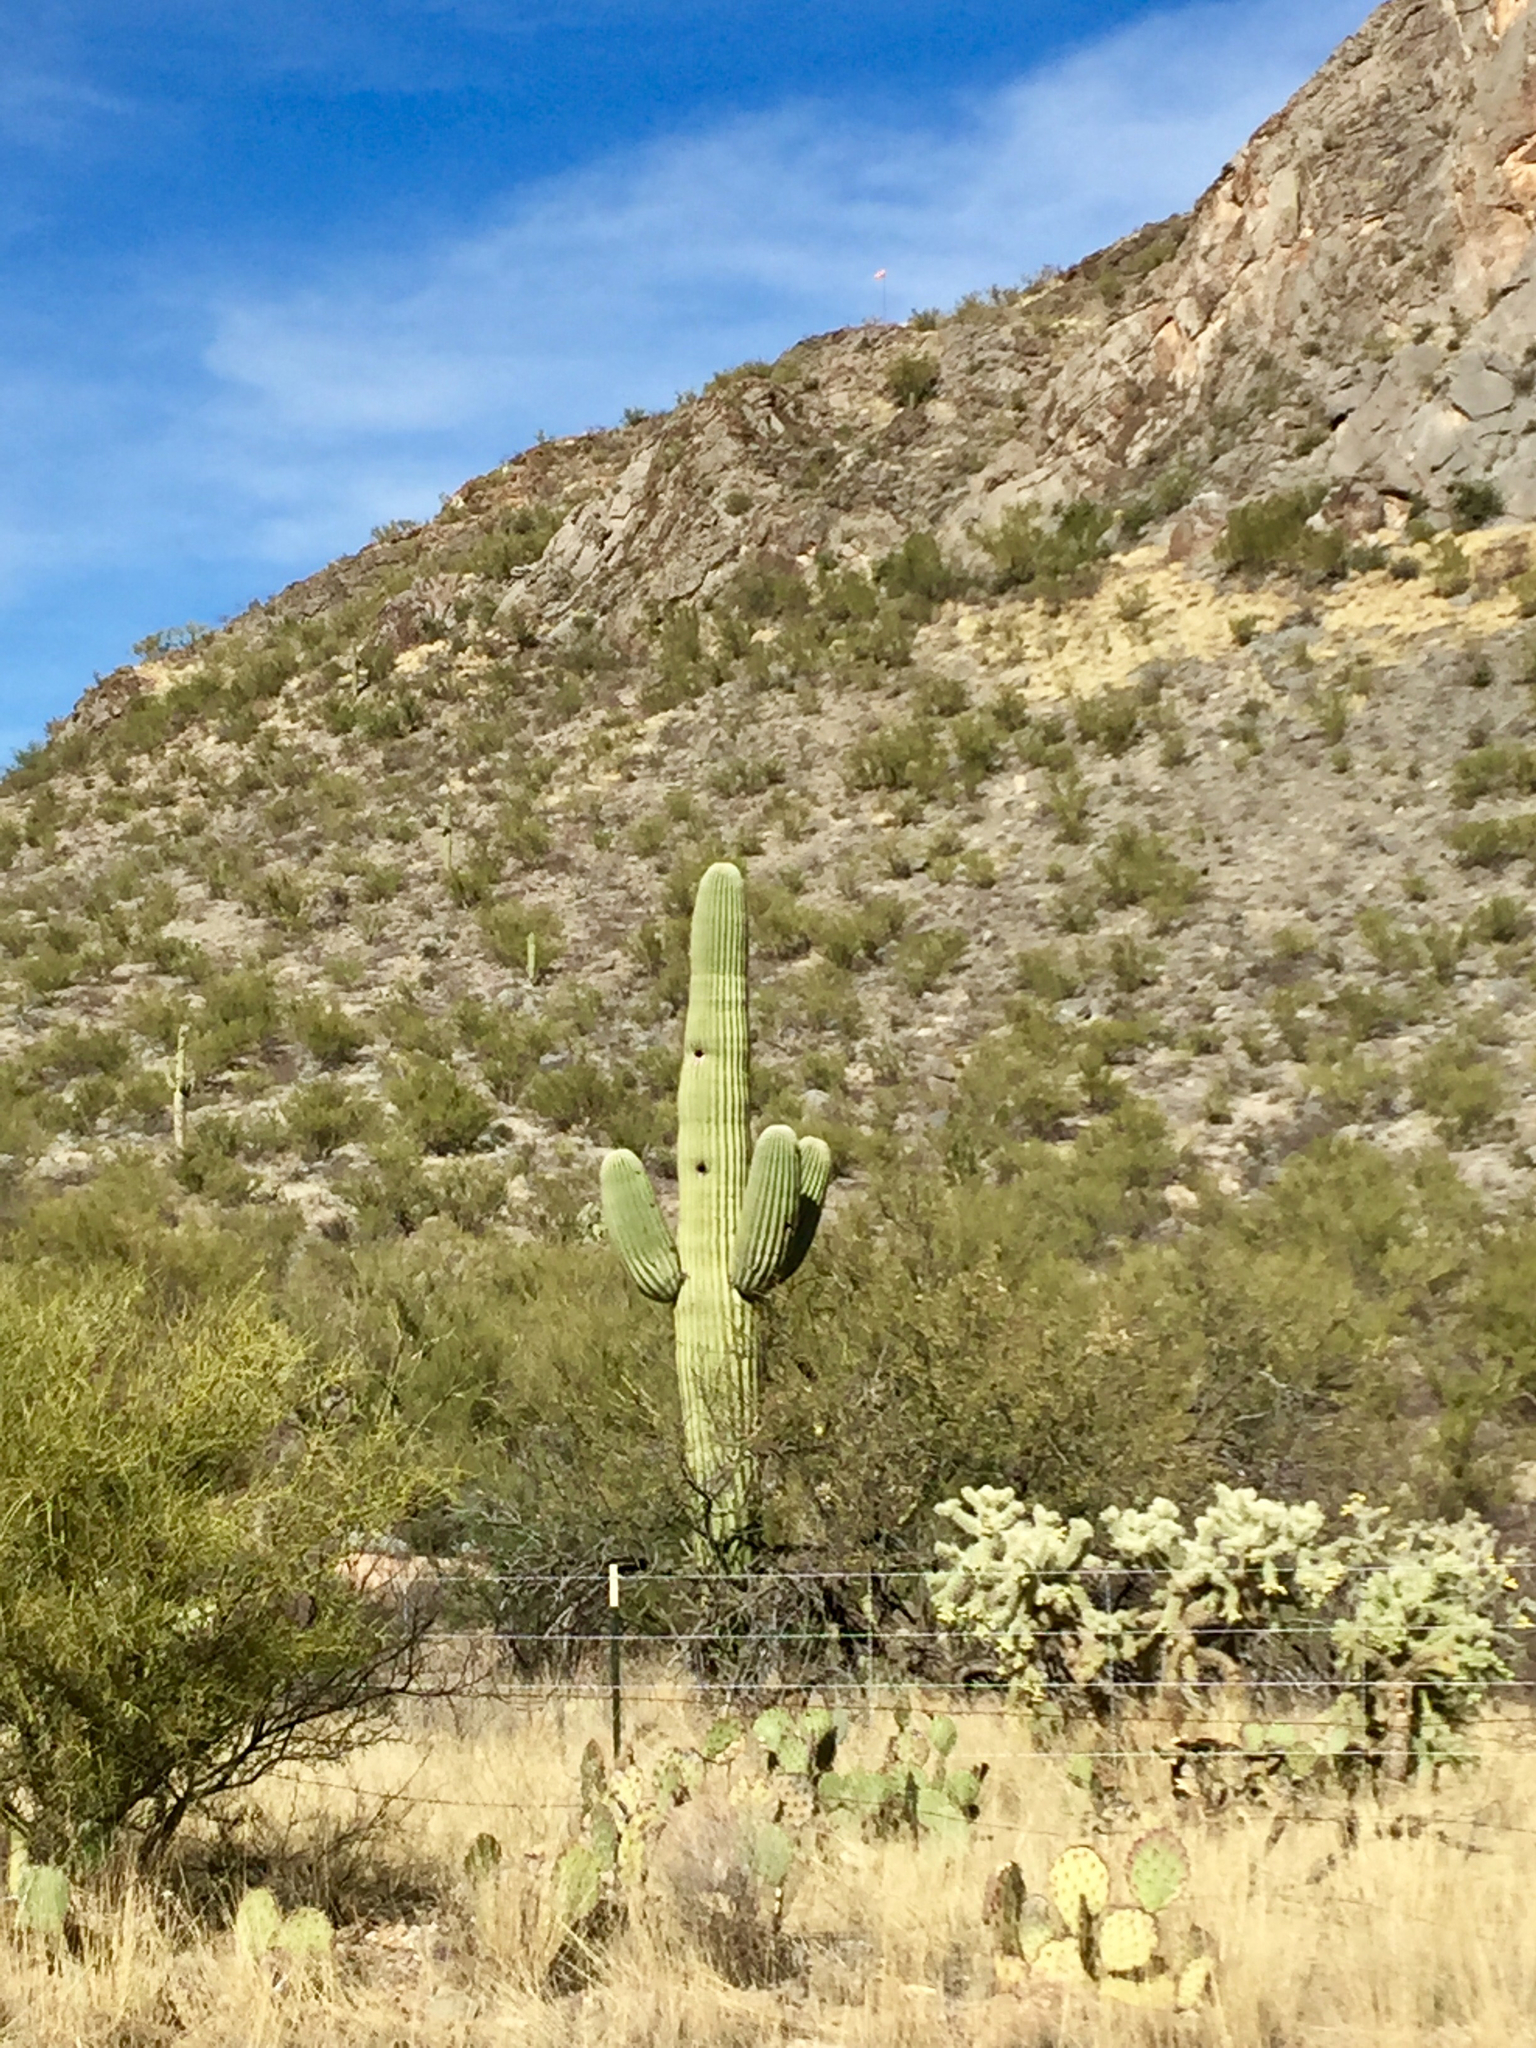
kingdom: Plantae
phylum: Tracheophyta
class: Magnoliopsida
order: Caryophyllales
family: Cactaceae
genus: Carnegiea
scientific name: Carnegiea gigantea
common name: Saguaro
